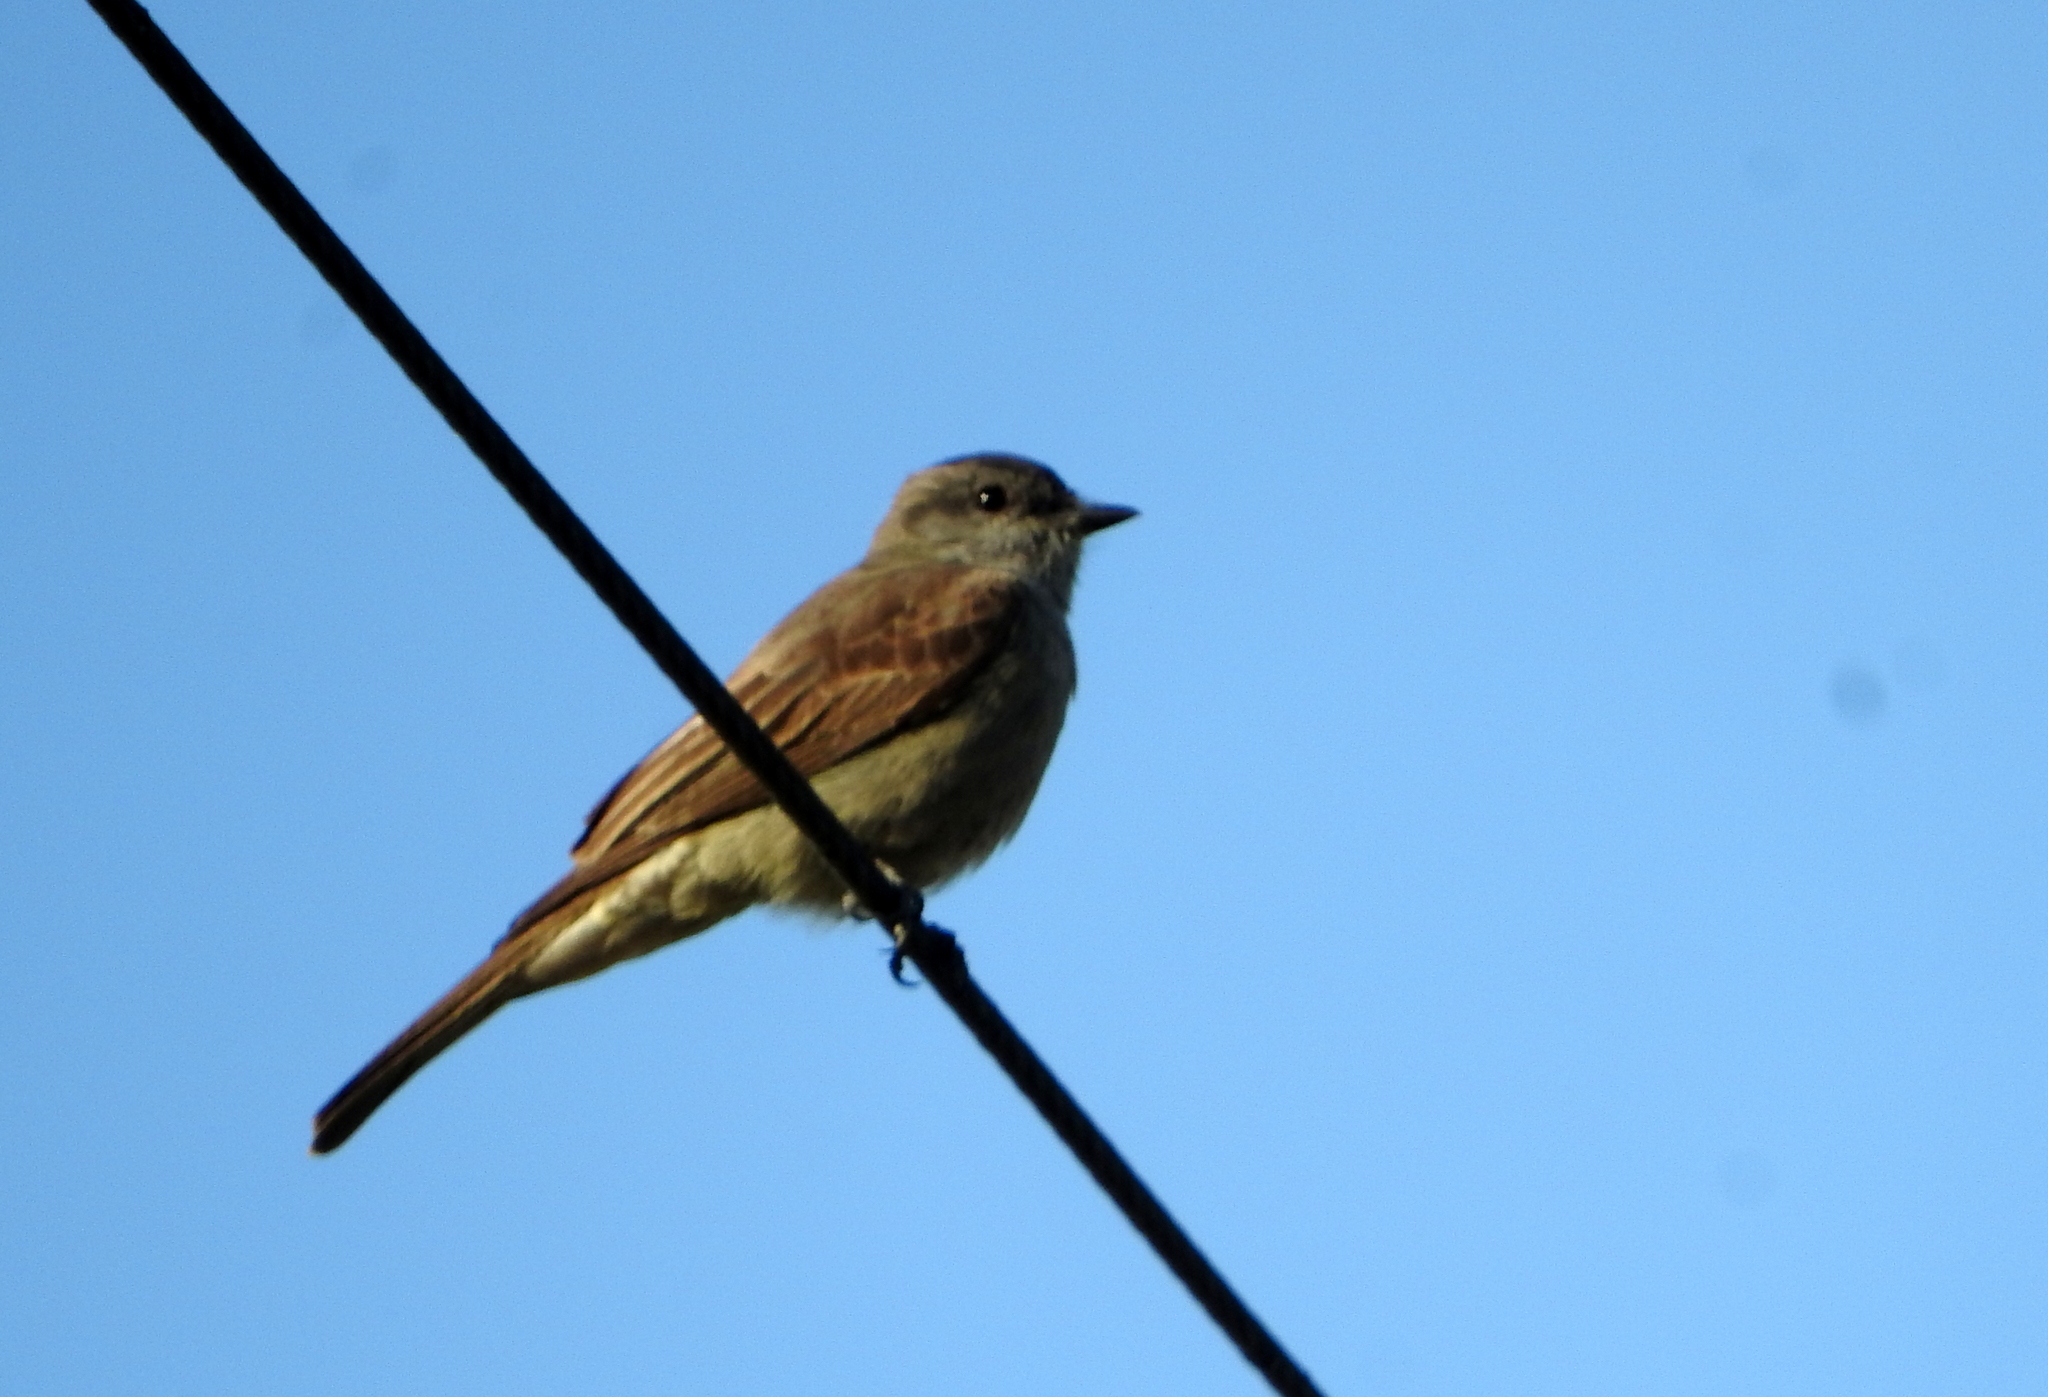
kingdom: Animalia
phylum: Chordata
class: Aves
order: Passeriformes
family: Tyrannidae
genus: Empidonomus
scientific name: Empidonomus aurantioatrocristatus
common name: Crowned slaty flycatcher
